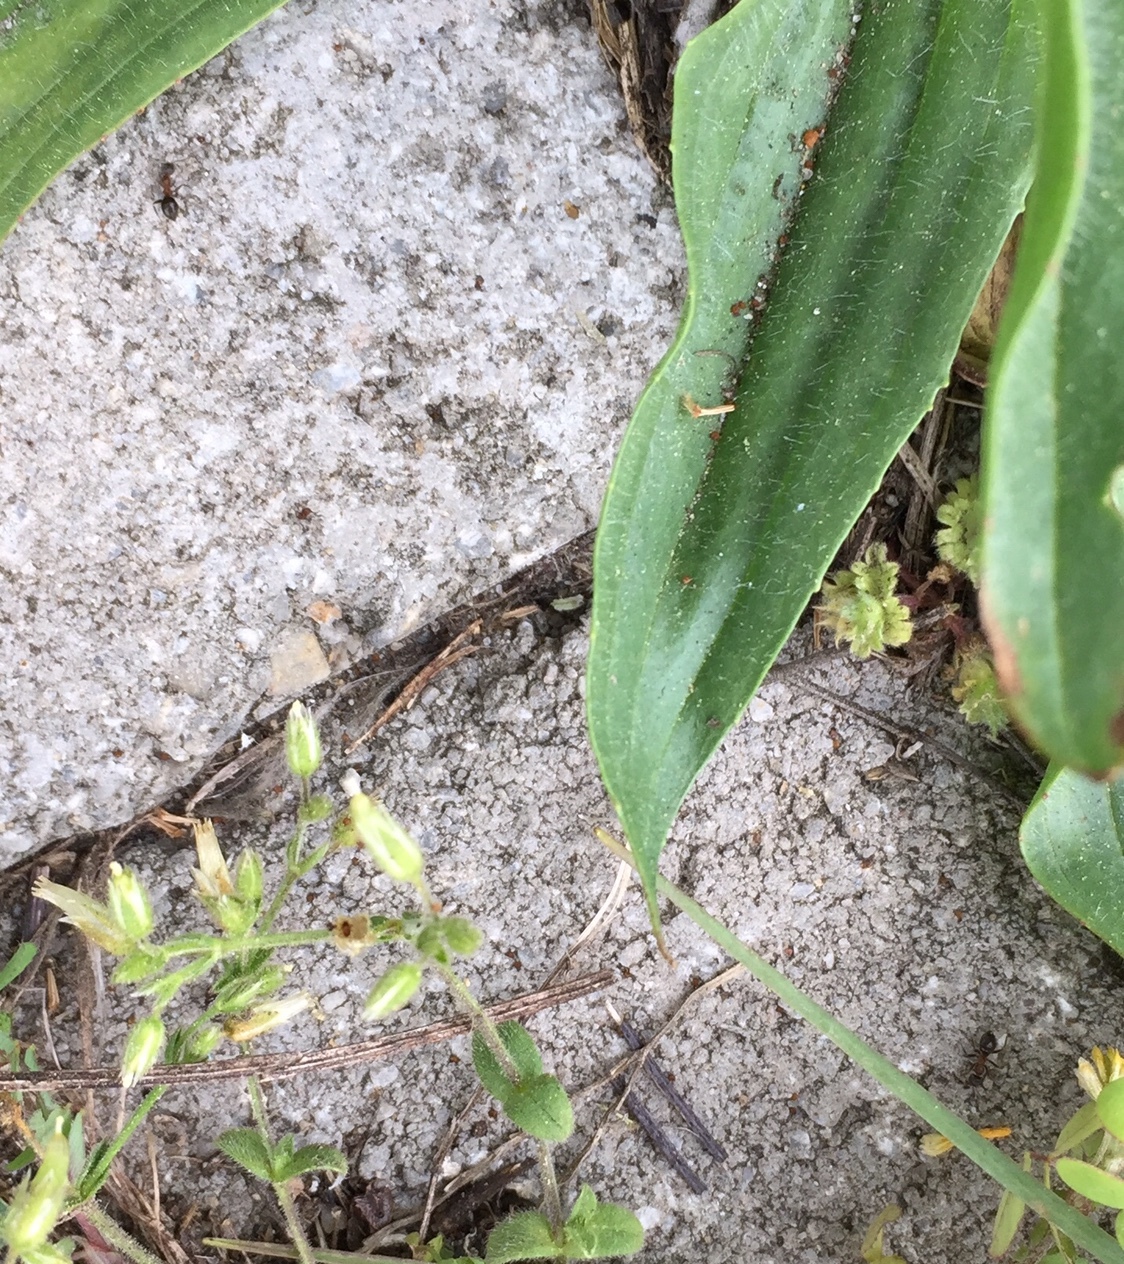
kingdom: Animalia
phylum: Arthropoda
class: Insecta
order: Hymenoptera
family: Formicidae
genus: Lasius
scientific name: Lasius emarginatus
